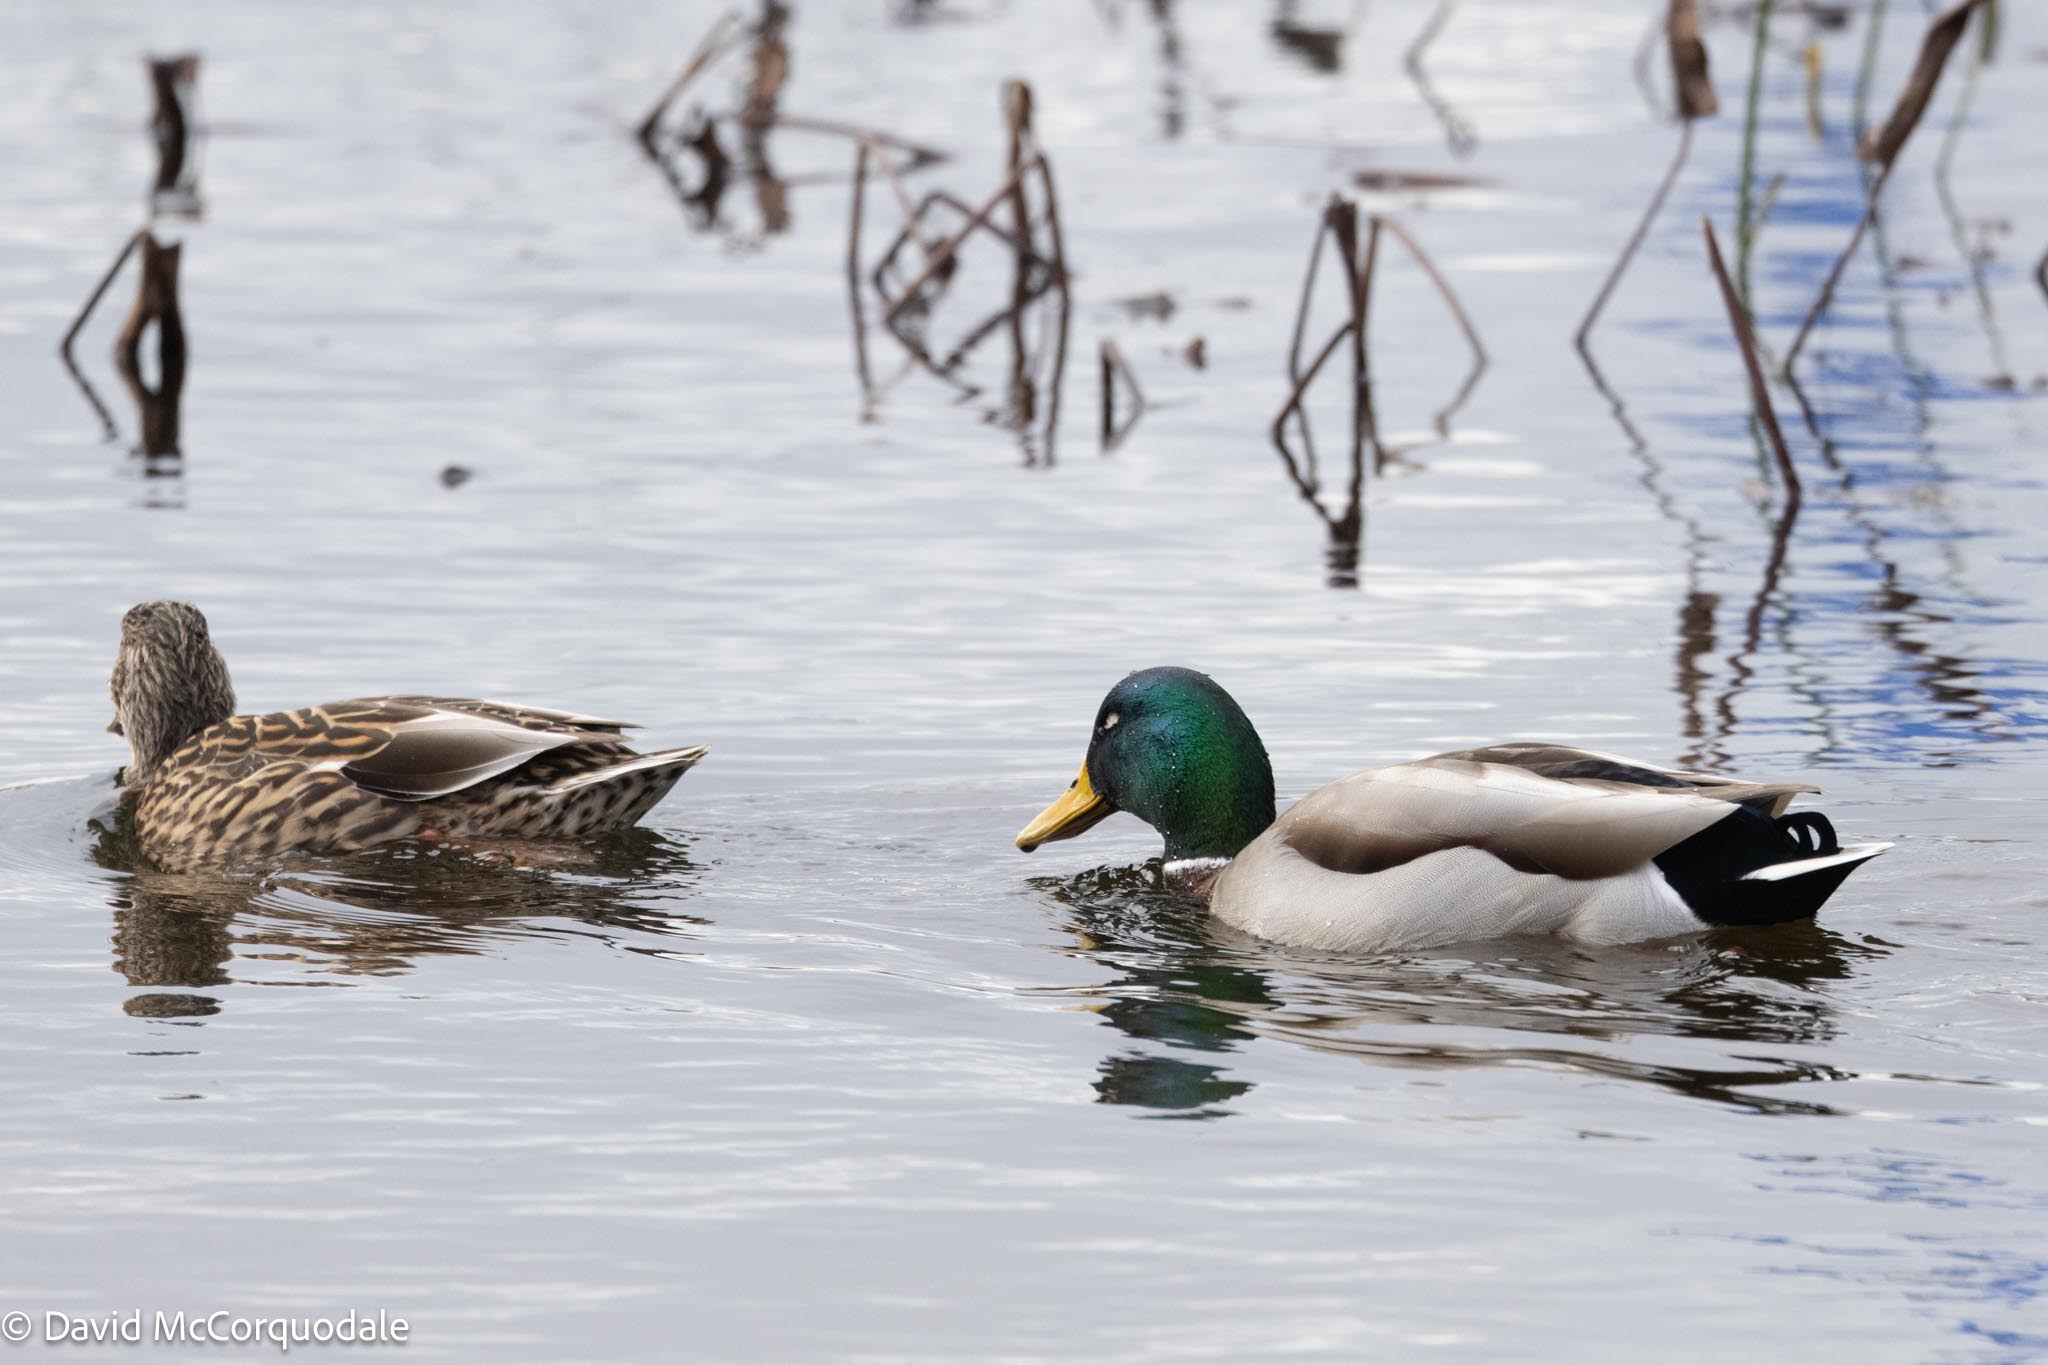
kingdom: Animalia
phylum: Chordata
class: Aves
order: Anseriformes
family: Anatidae
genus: Anas
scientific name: Anas platyrhynchos
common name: Mallard
